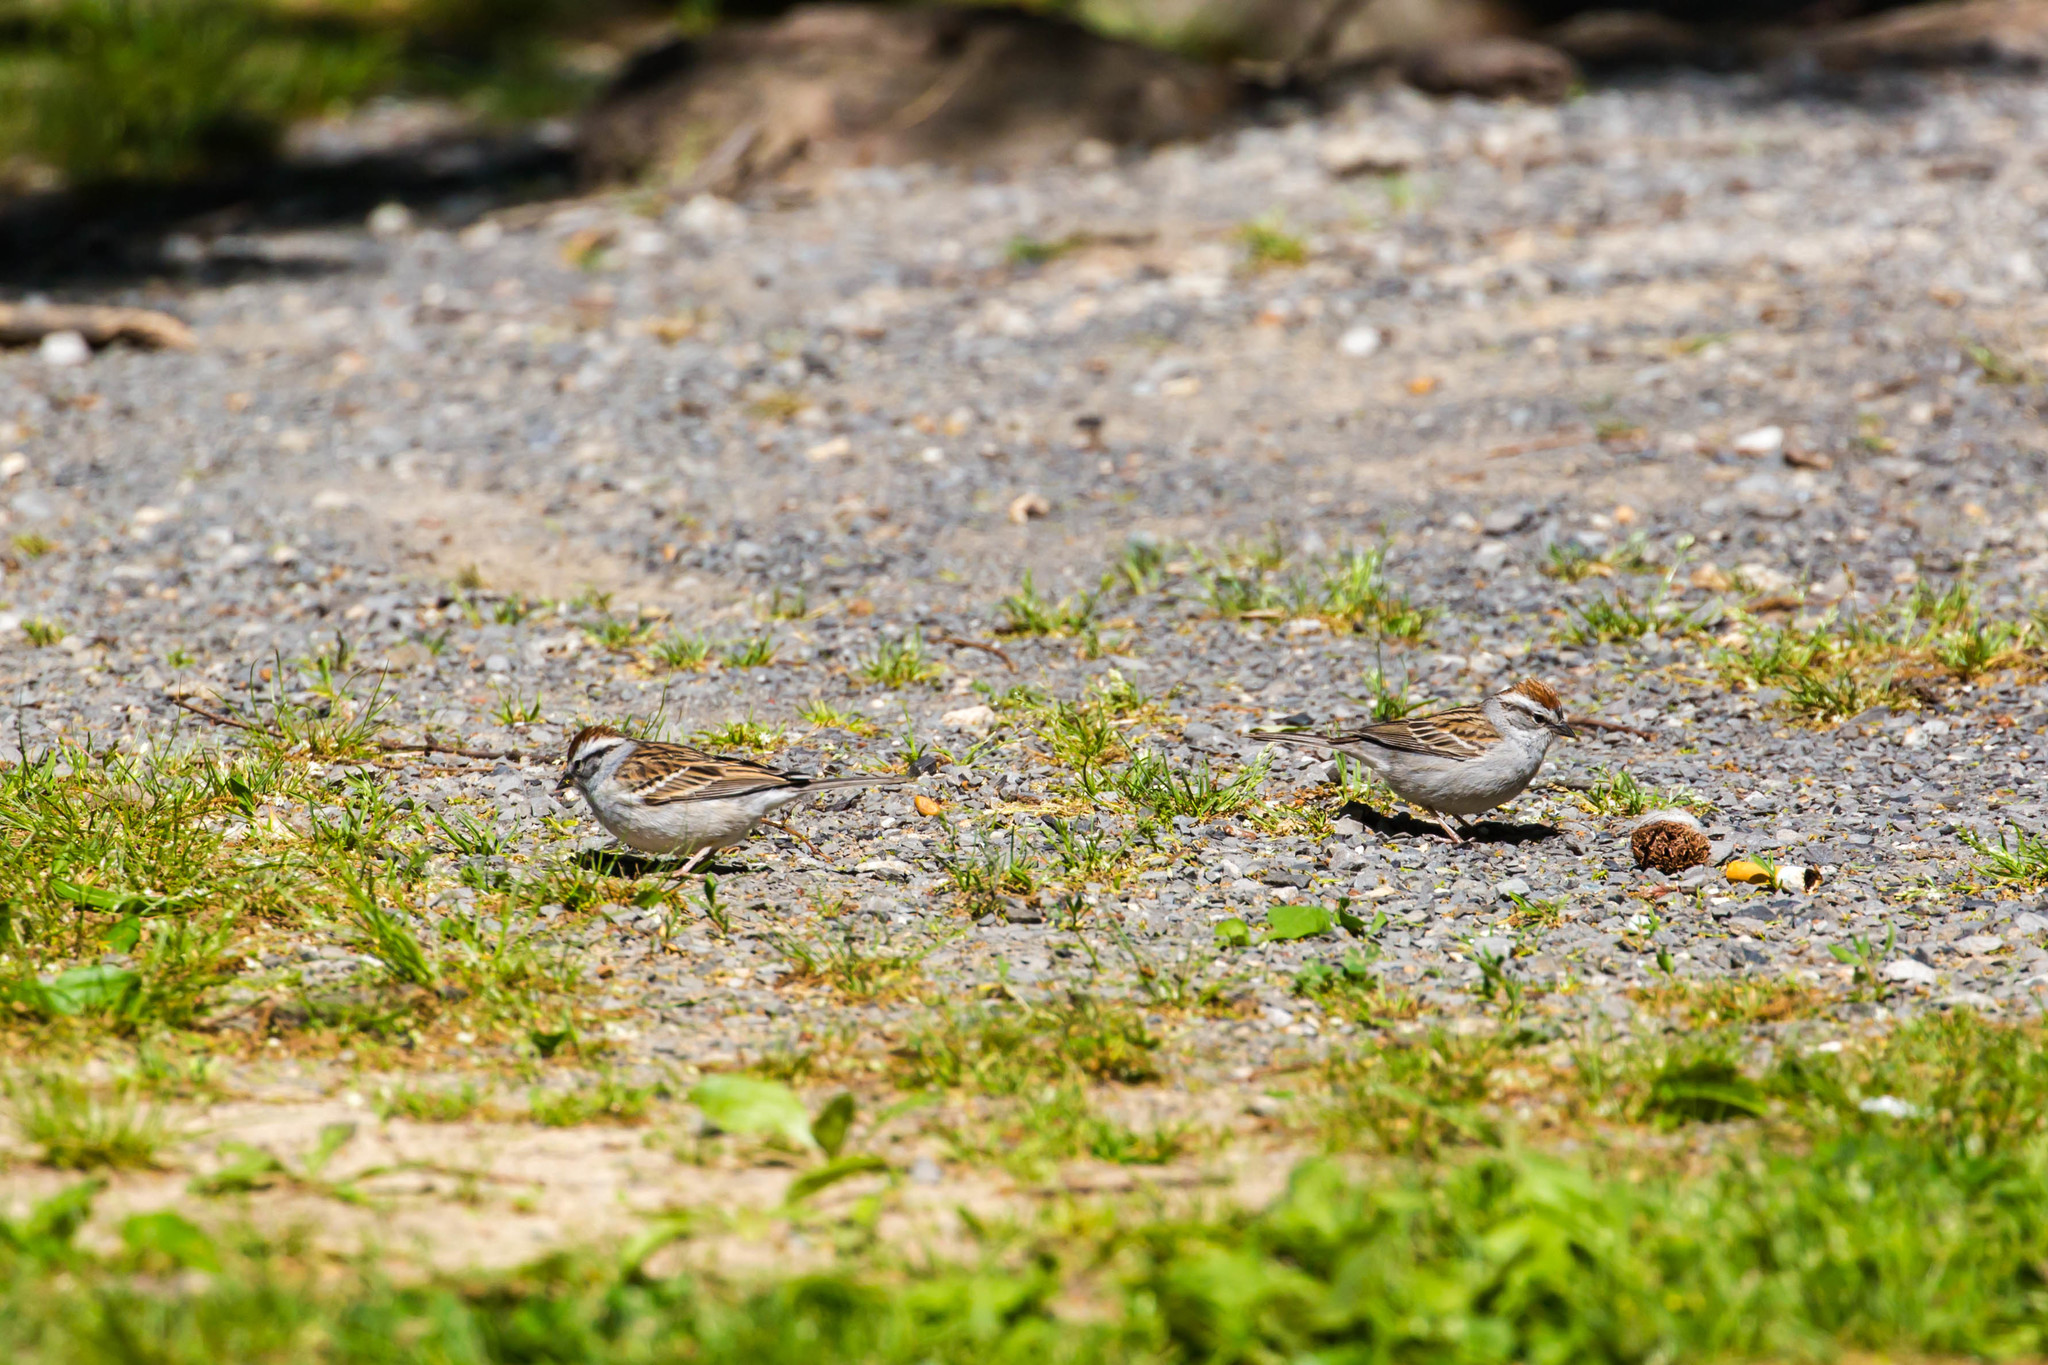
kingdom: Animalia
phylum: Chordata
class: Aves
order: Passeriformes
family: Passerellidae
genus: Spizella
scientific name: Spizella passerina
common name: Chipping sparrow
